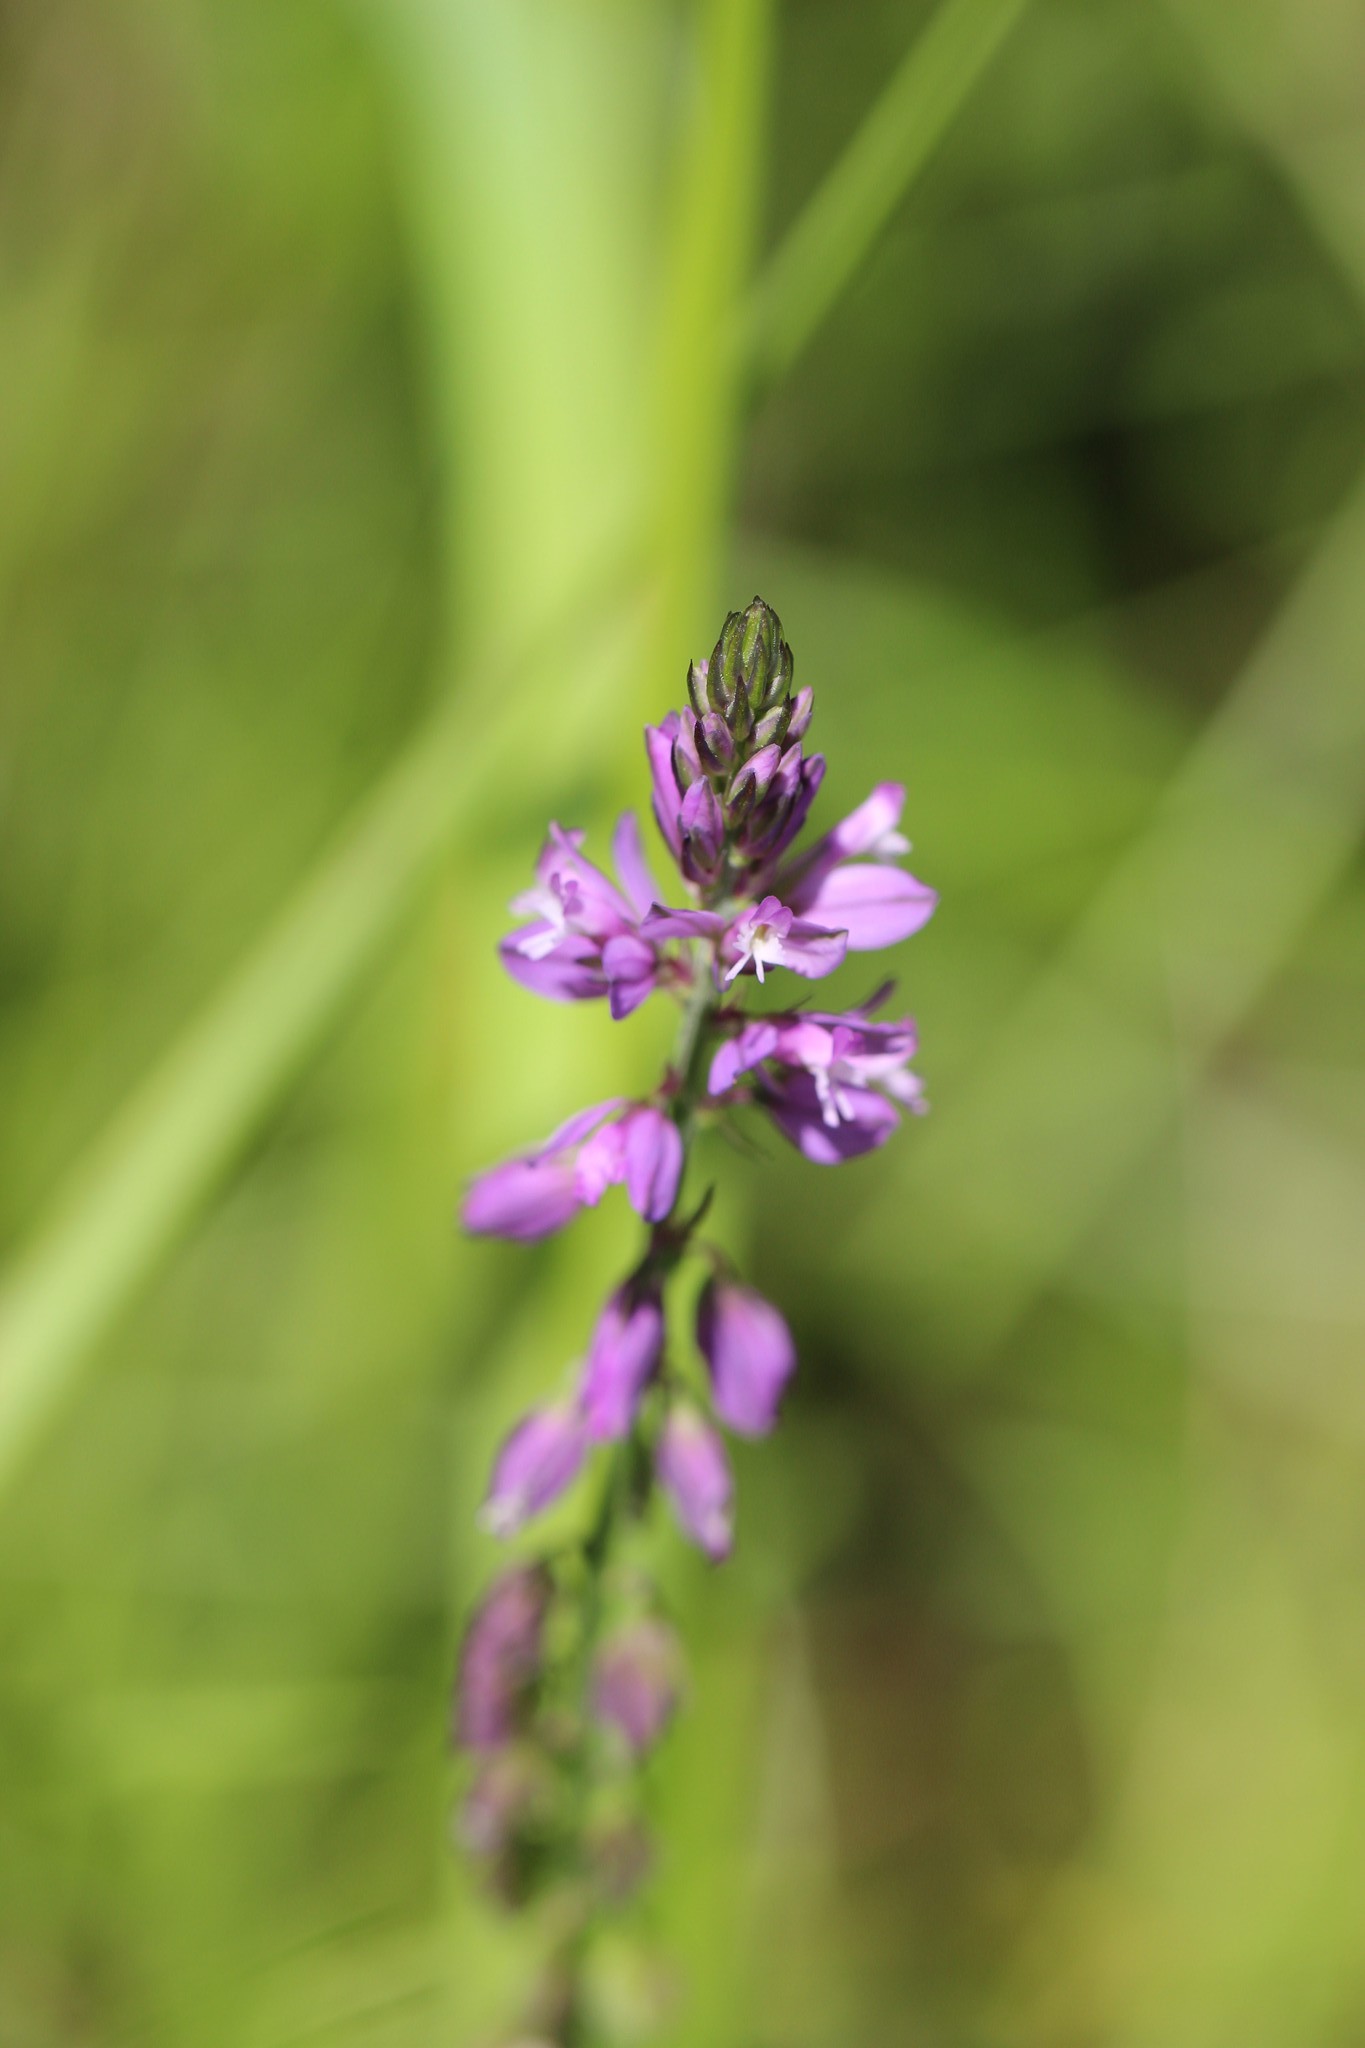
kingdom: Plantae
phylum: Tracheophyta
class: Magnoliopsida
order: Fabales
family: Polygalaceae
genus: Polygala
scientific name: Polygala comosa
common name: Tufted milkwort
